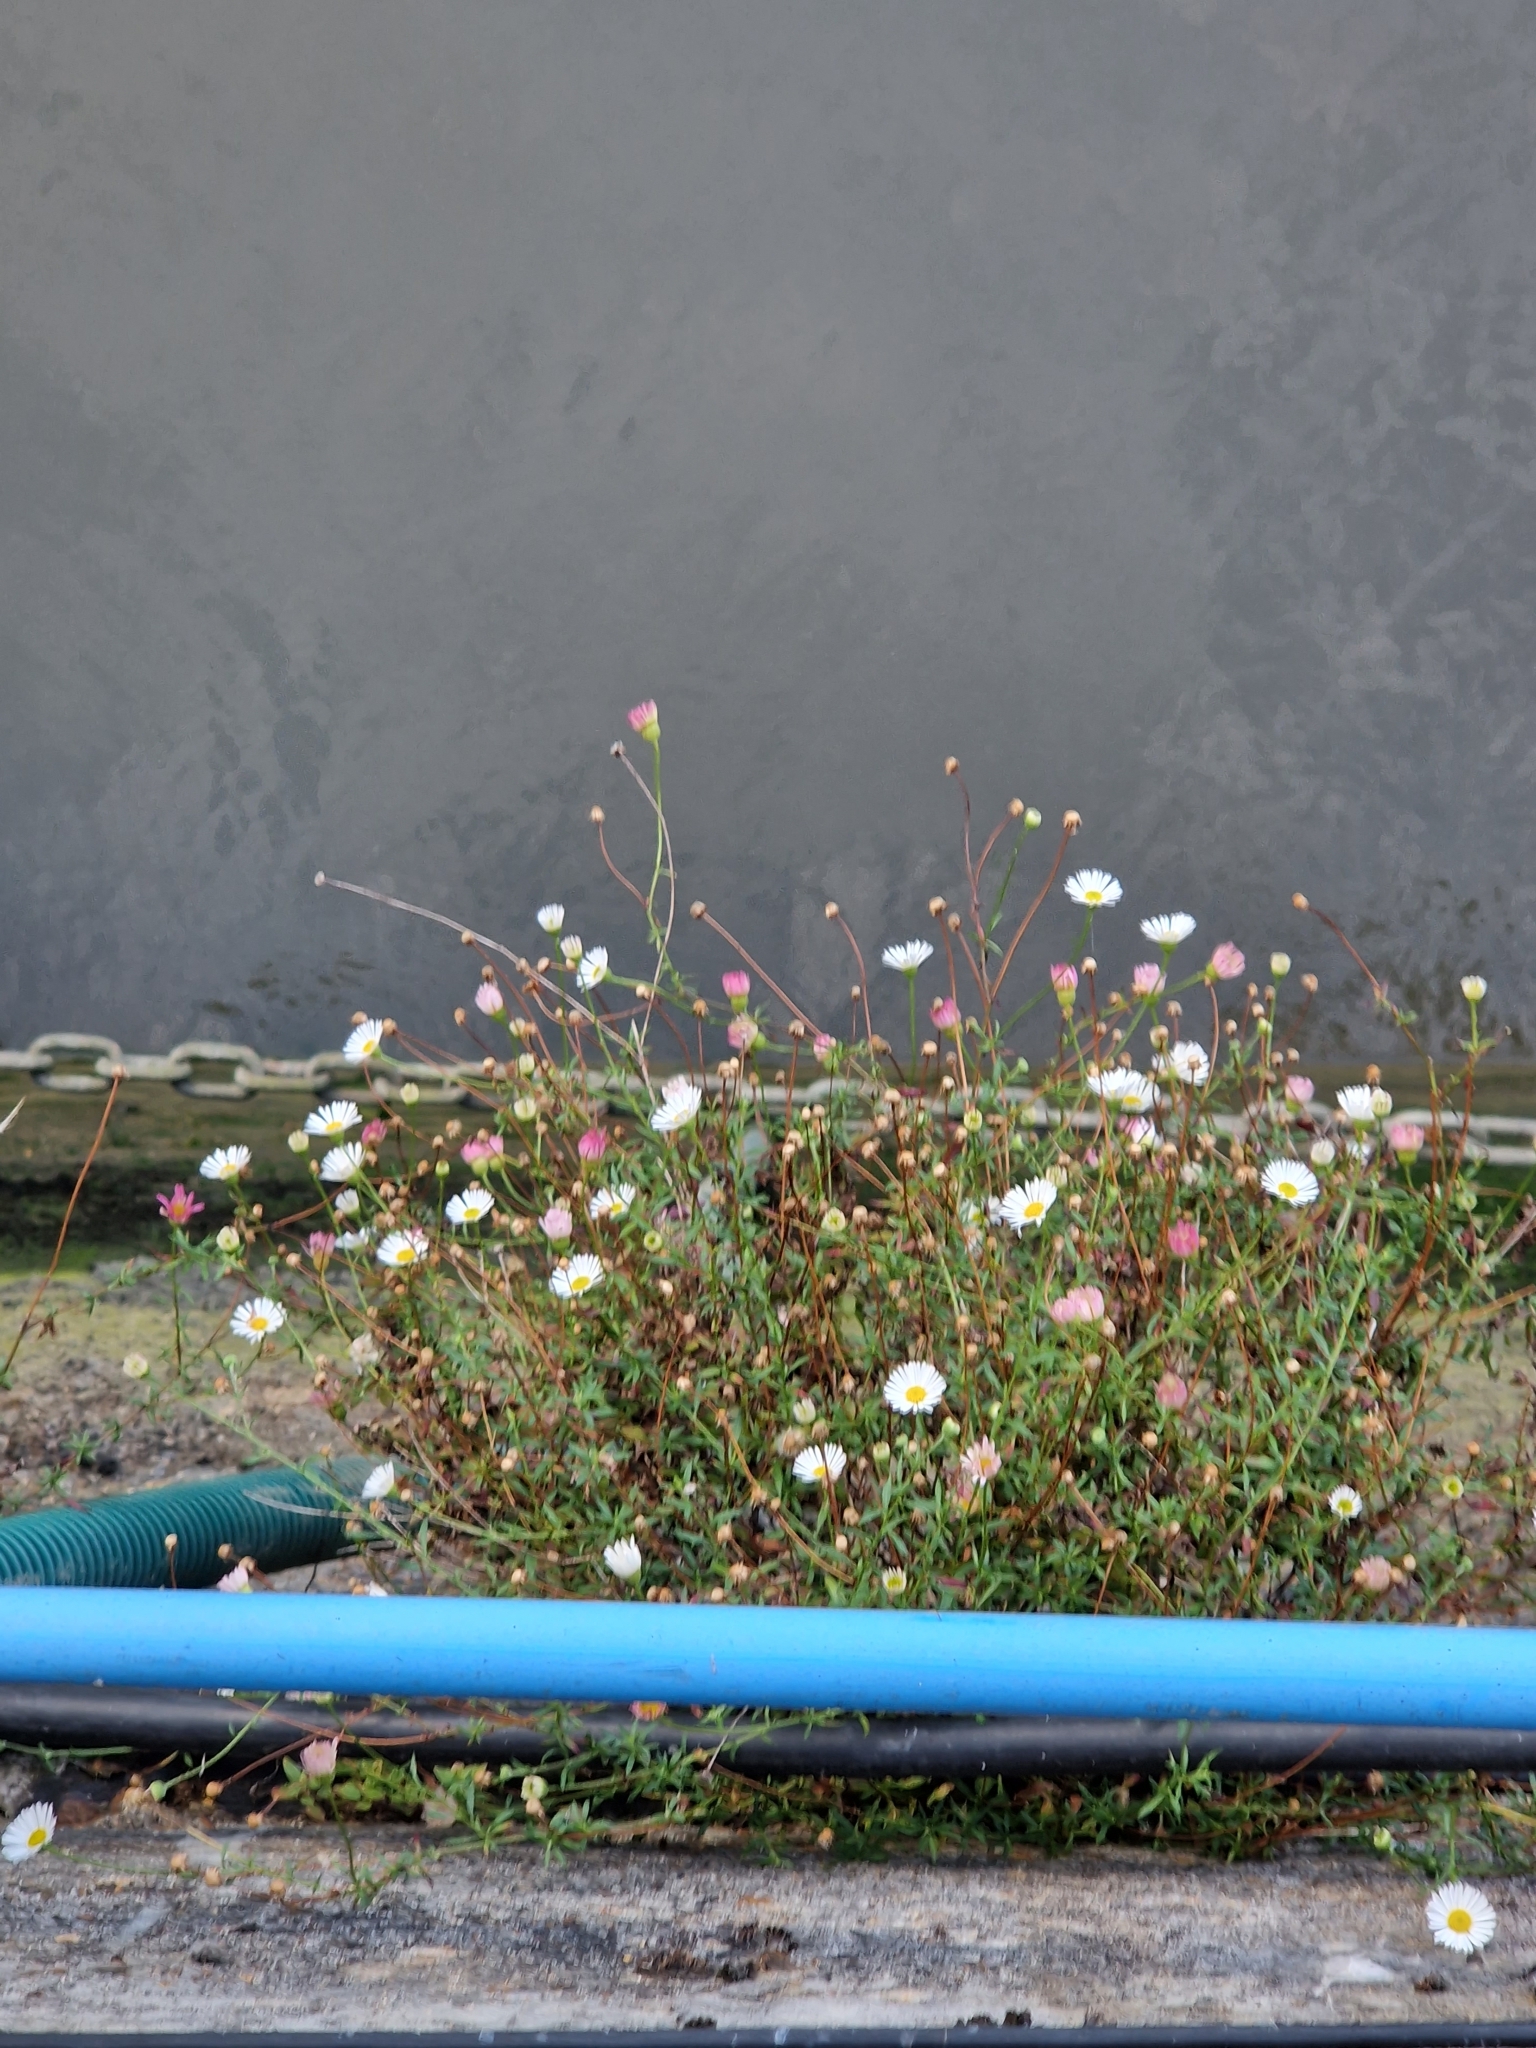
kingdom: Plantae
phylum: Tracheophyta
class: Magnoliopsida
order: Asterales
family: Asteraceae
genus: Erigeron
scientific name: Erigeron karvinskianus
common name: Mexican fleabane
